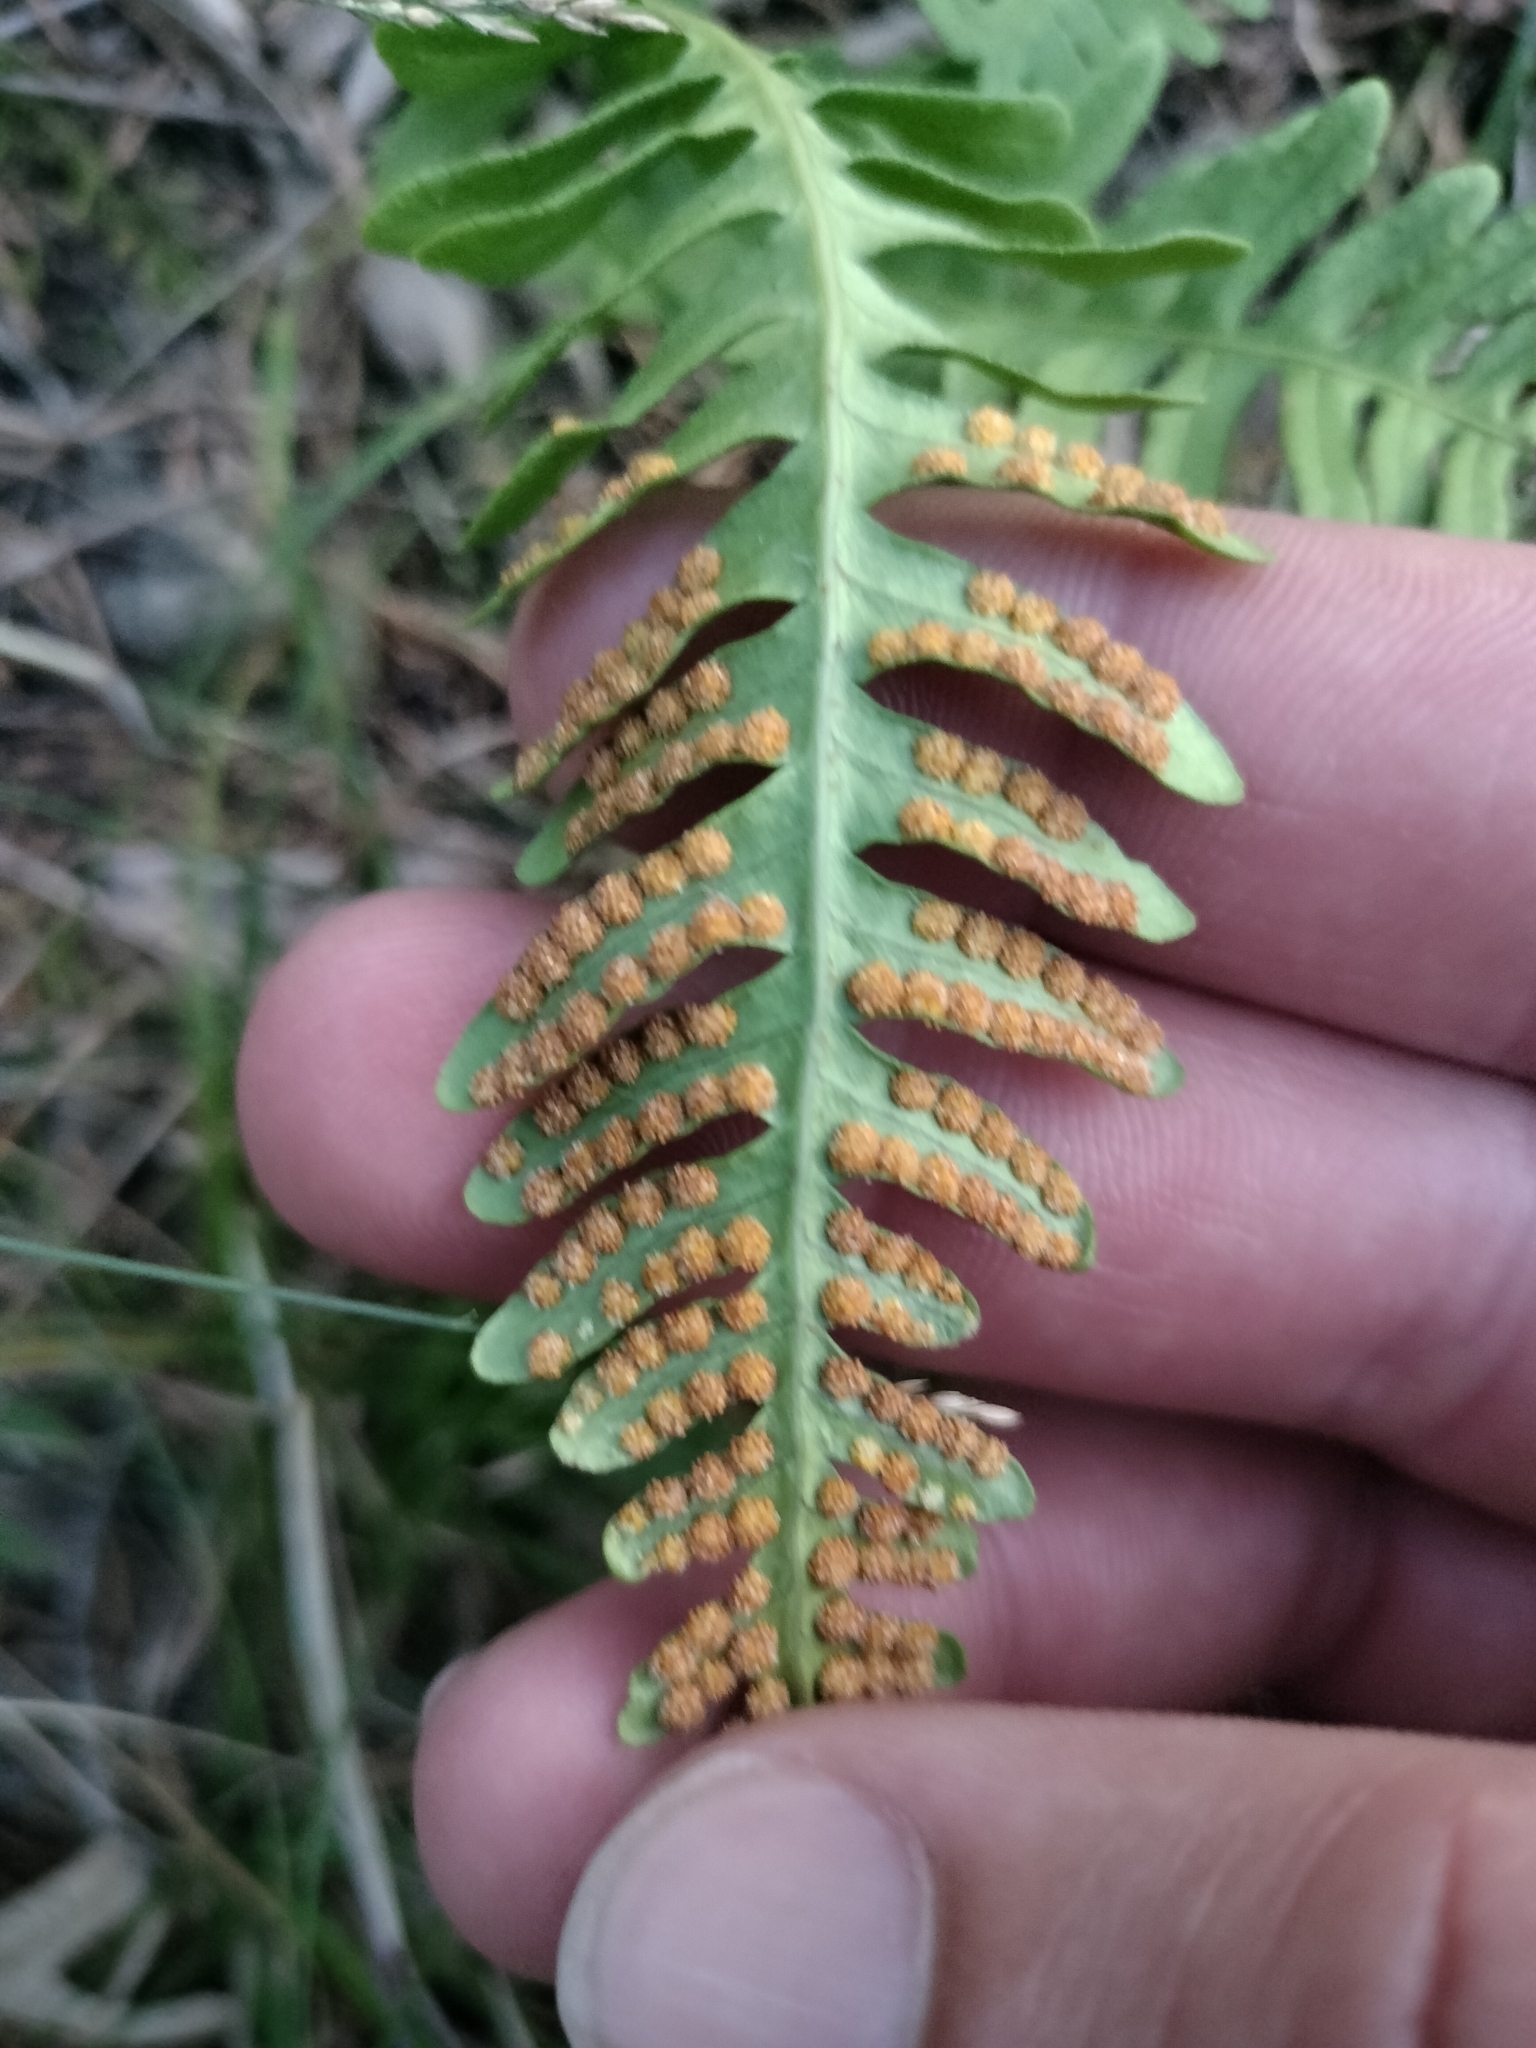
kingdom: Plantae
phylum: Tracheophyta
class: Polypodiopsida
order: Polypodiales
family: Polypodiaceae
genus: Polypodium
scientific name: Polypodium virginianum
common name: American wall fern
